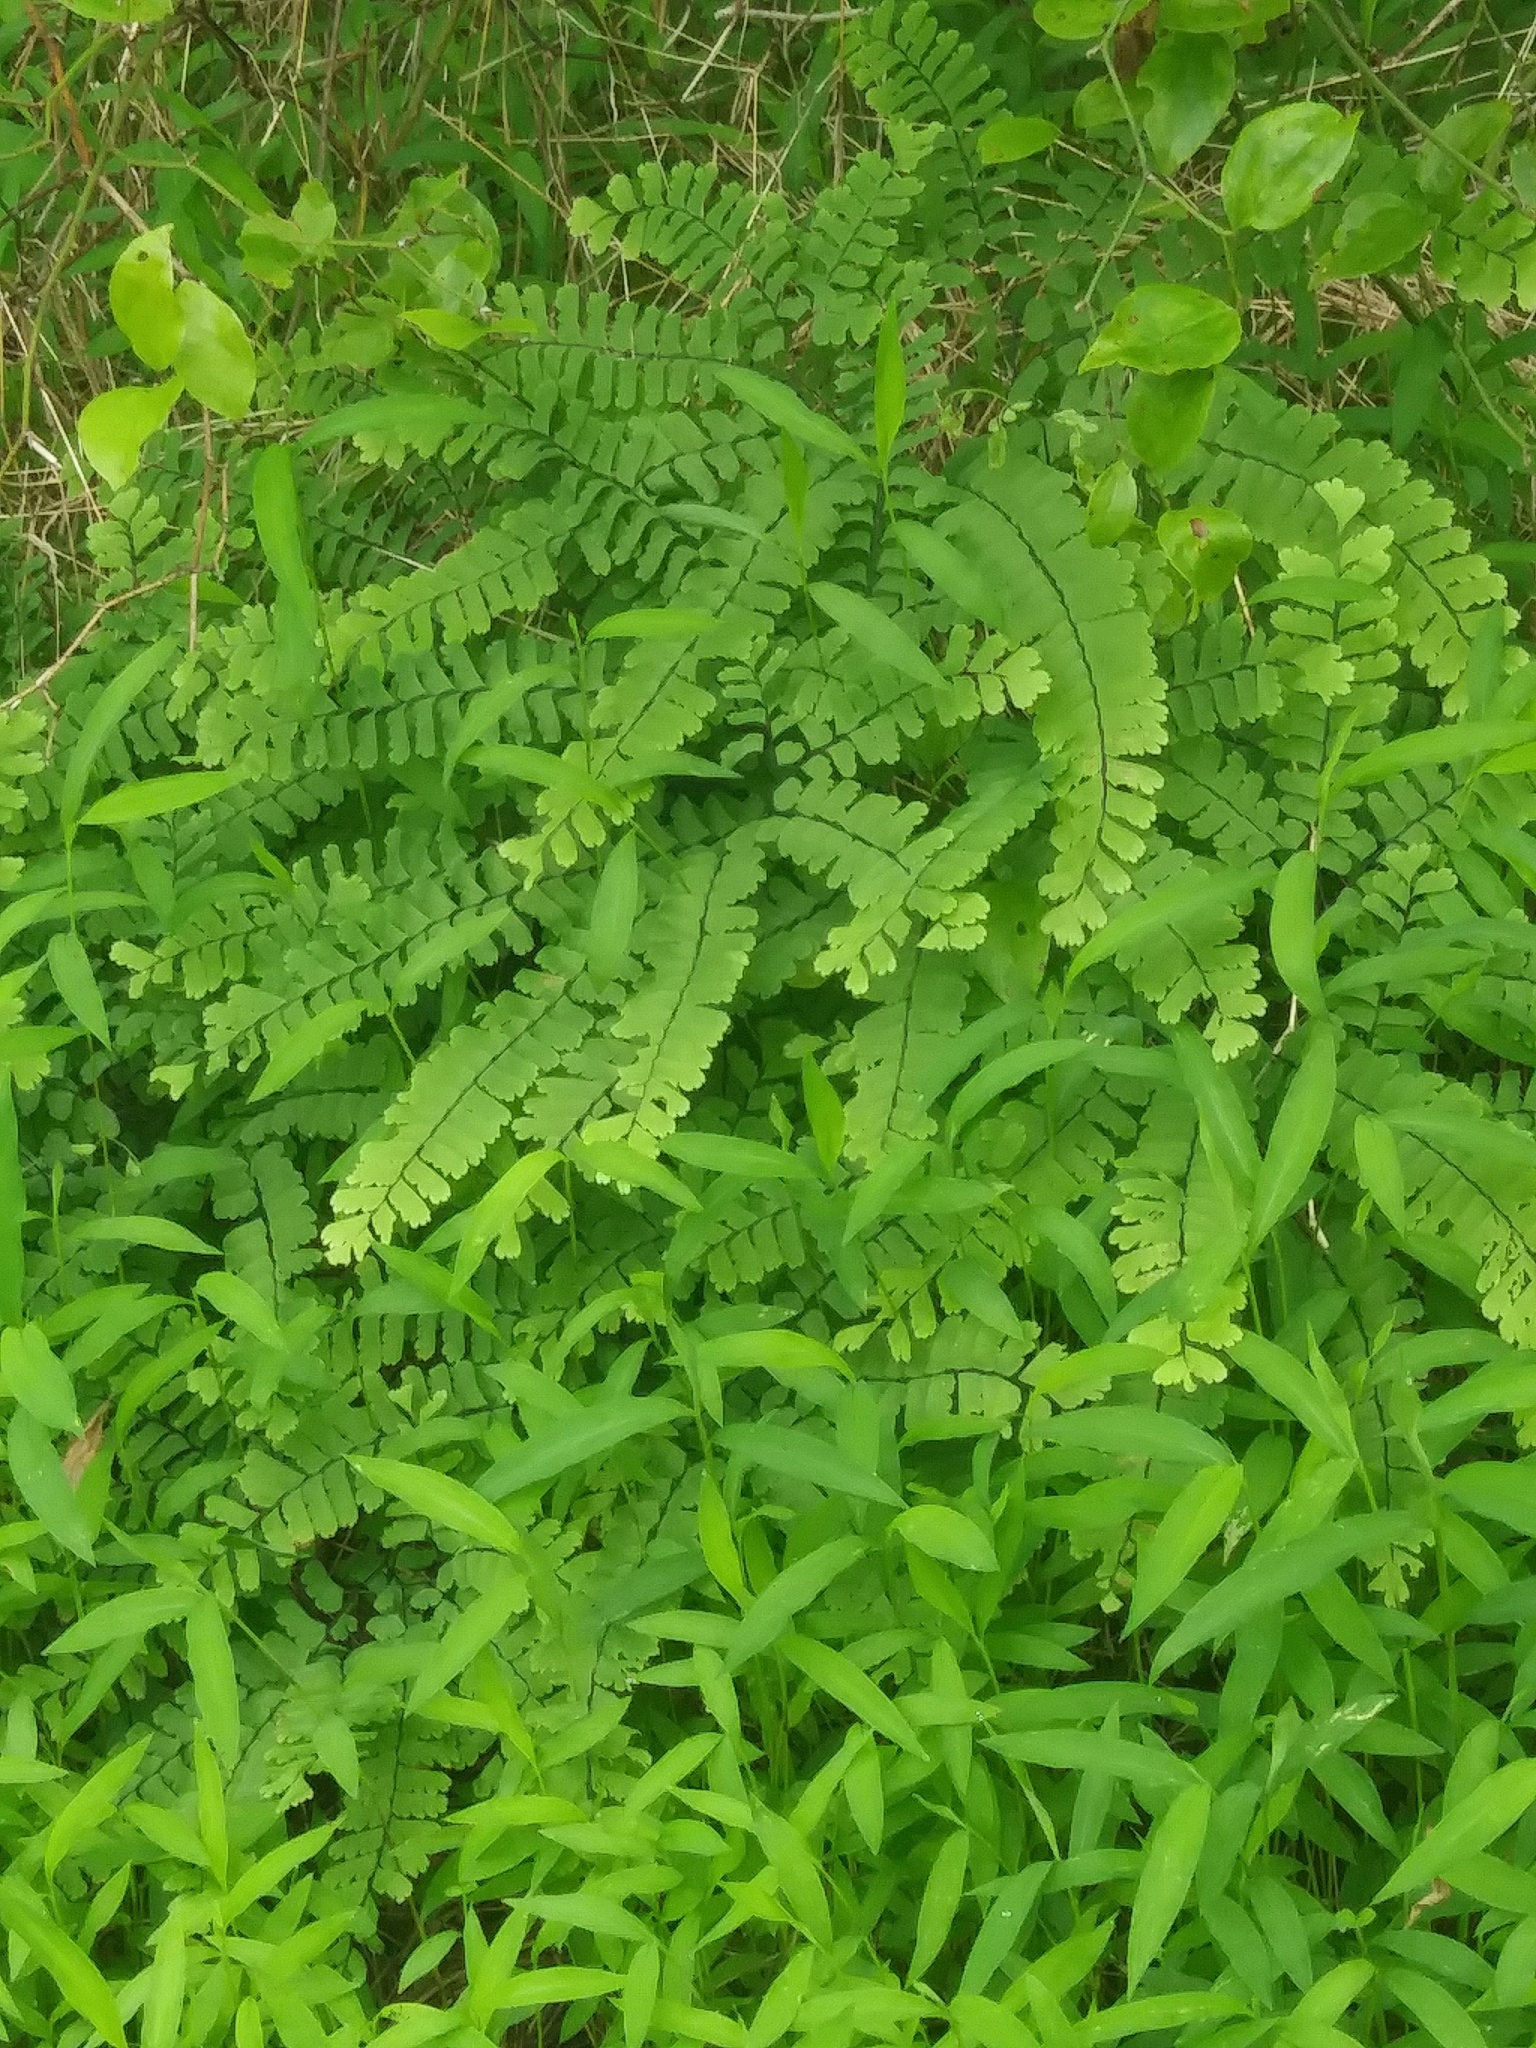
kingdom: Plantae
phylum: Tracheophyta
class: Polypodiopsida
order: Polypodiales
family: Pteridaceae
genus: Adiantum
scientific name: Adiantum pedatum
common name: Five-finger fern
